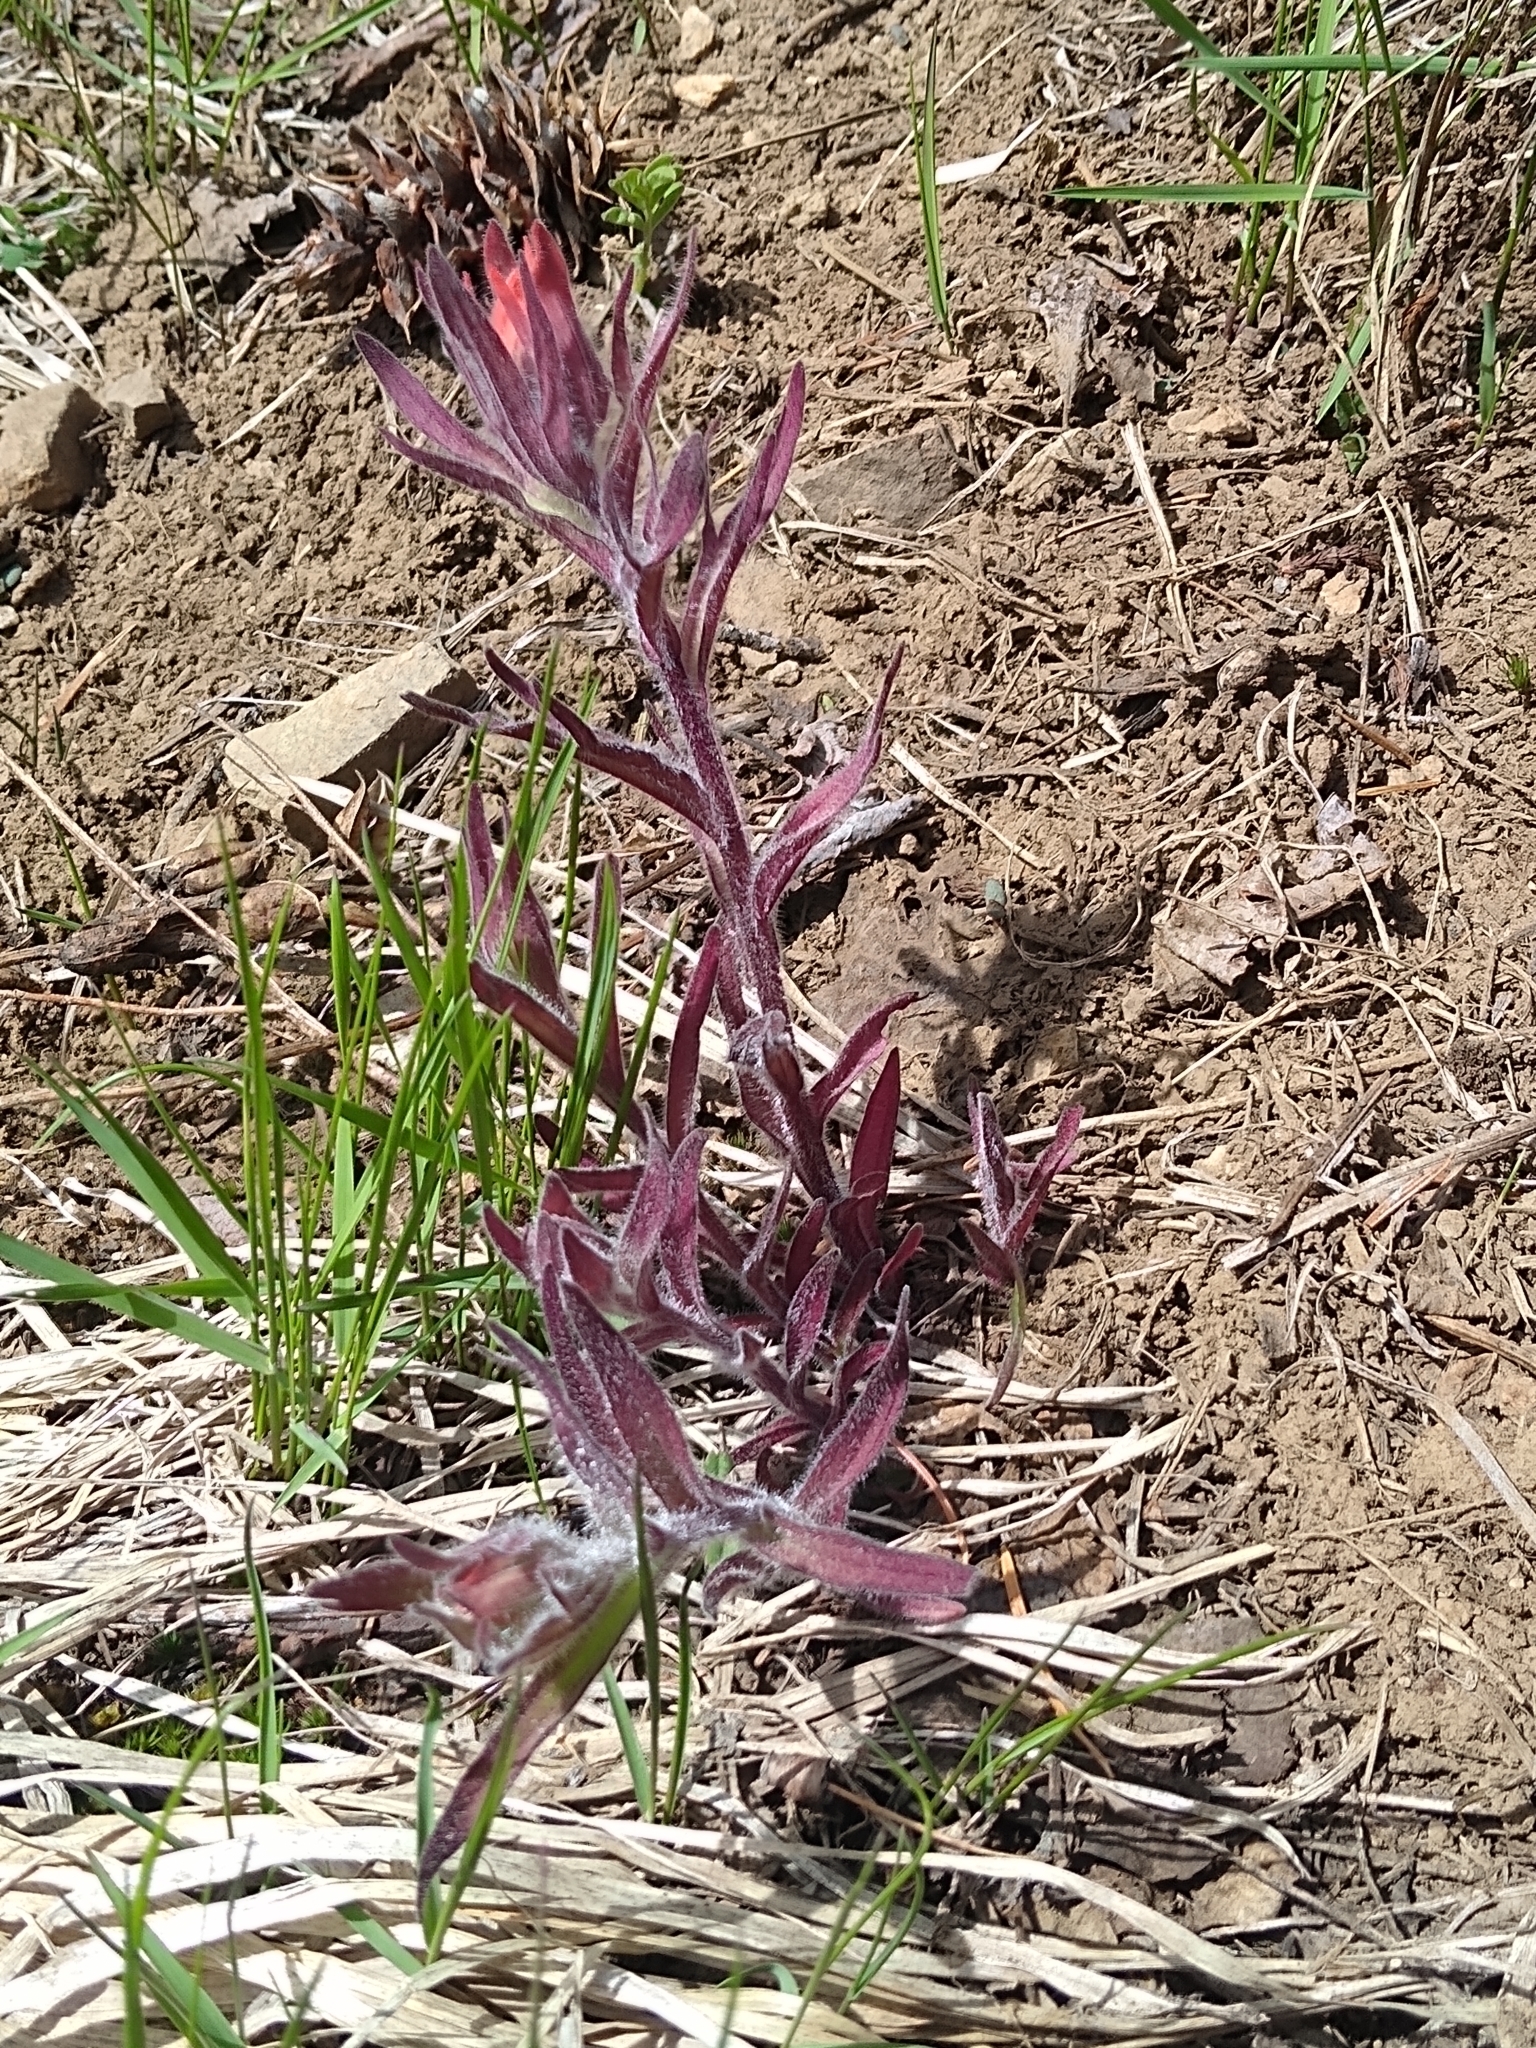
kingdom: Plantae
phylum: Tracheophyta
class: Magnoliopsida
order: Lamiales
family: Orobanchaceae
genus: Castilleja
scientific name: Castilleja hispida
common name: Bristly paintbrush
